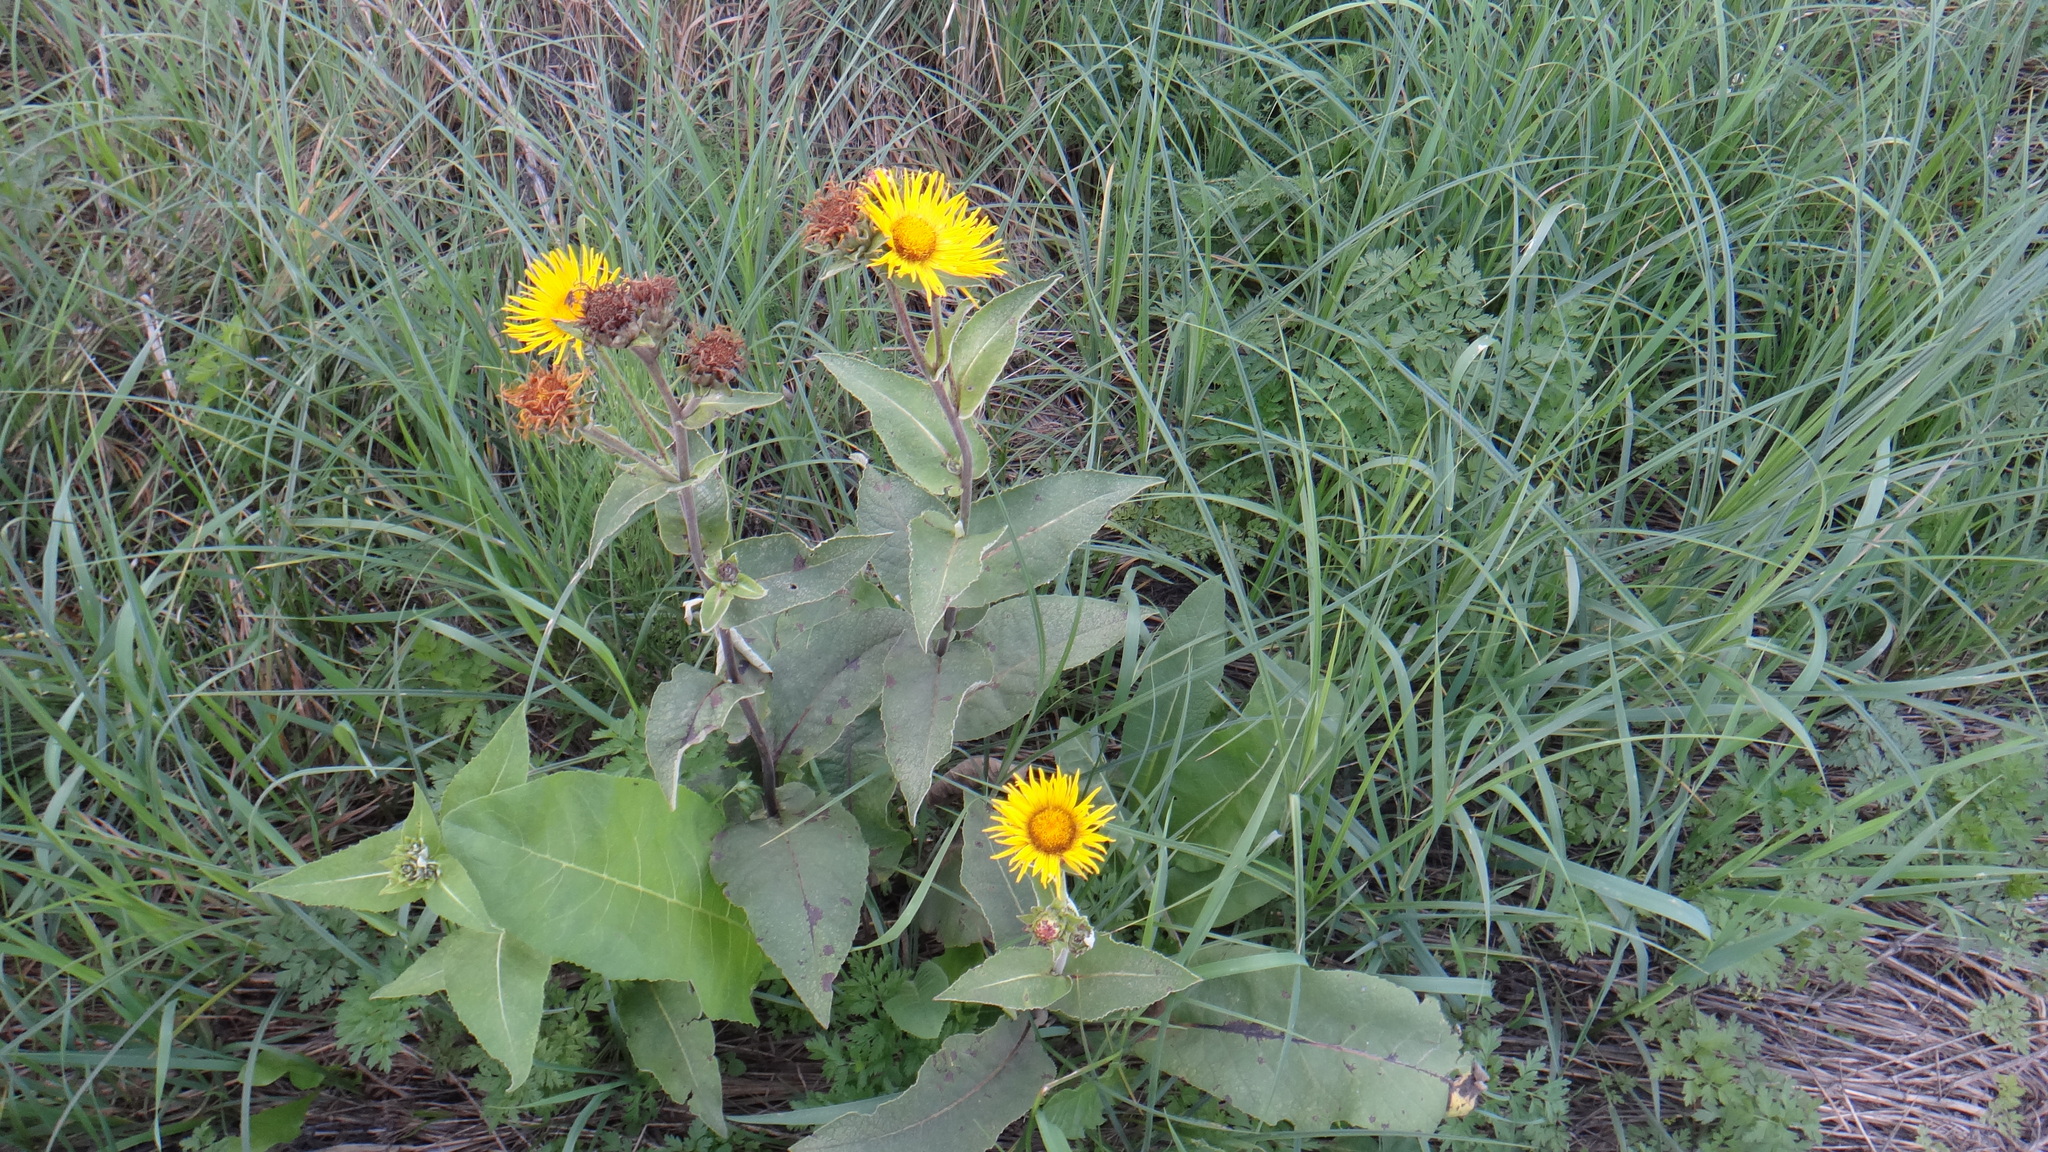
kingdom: Plantae
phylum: Tracheophyta
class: Magnoliopsida
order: Asterales
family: Asteraceae
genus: Inula
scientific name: Inula helenium
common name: Elecampane
